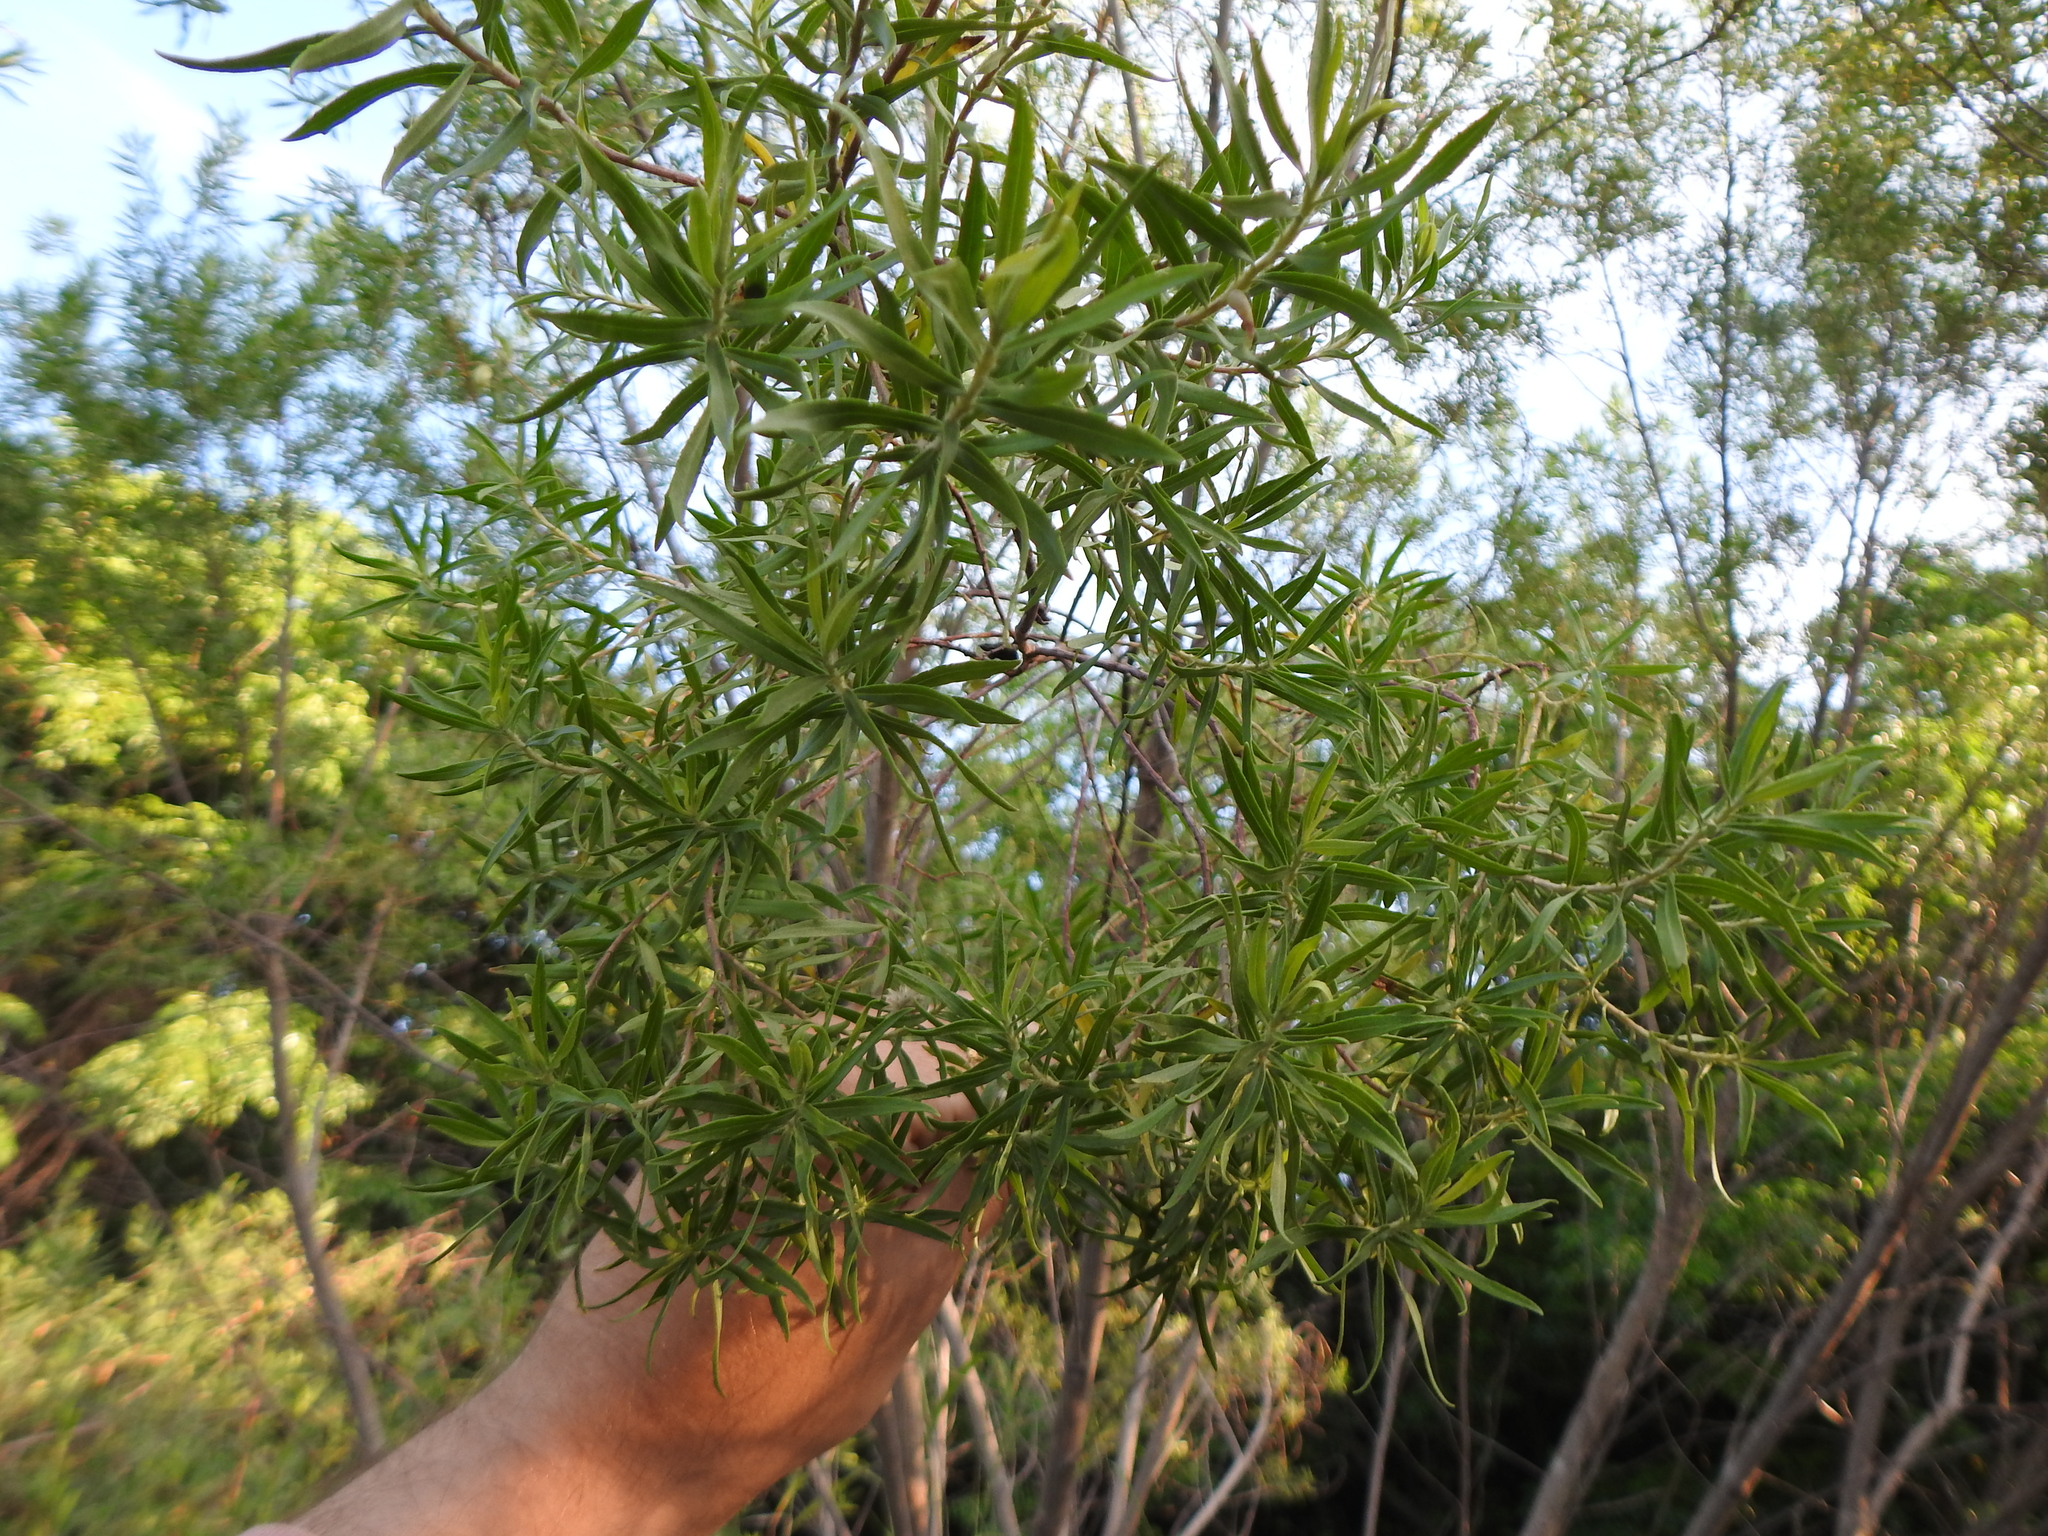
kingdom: Plantae
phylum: Tracheophyta
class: Magnoliopsida
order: Asterales
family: Asteraceae
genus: Baccharis
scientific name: Baccharis dracunculifolia
